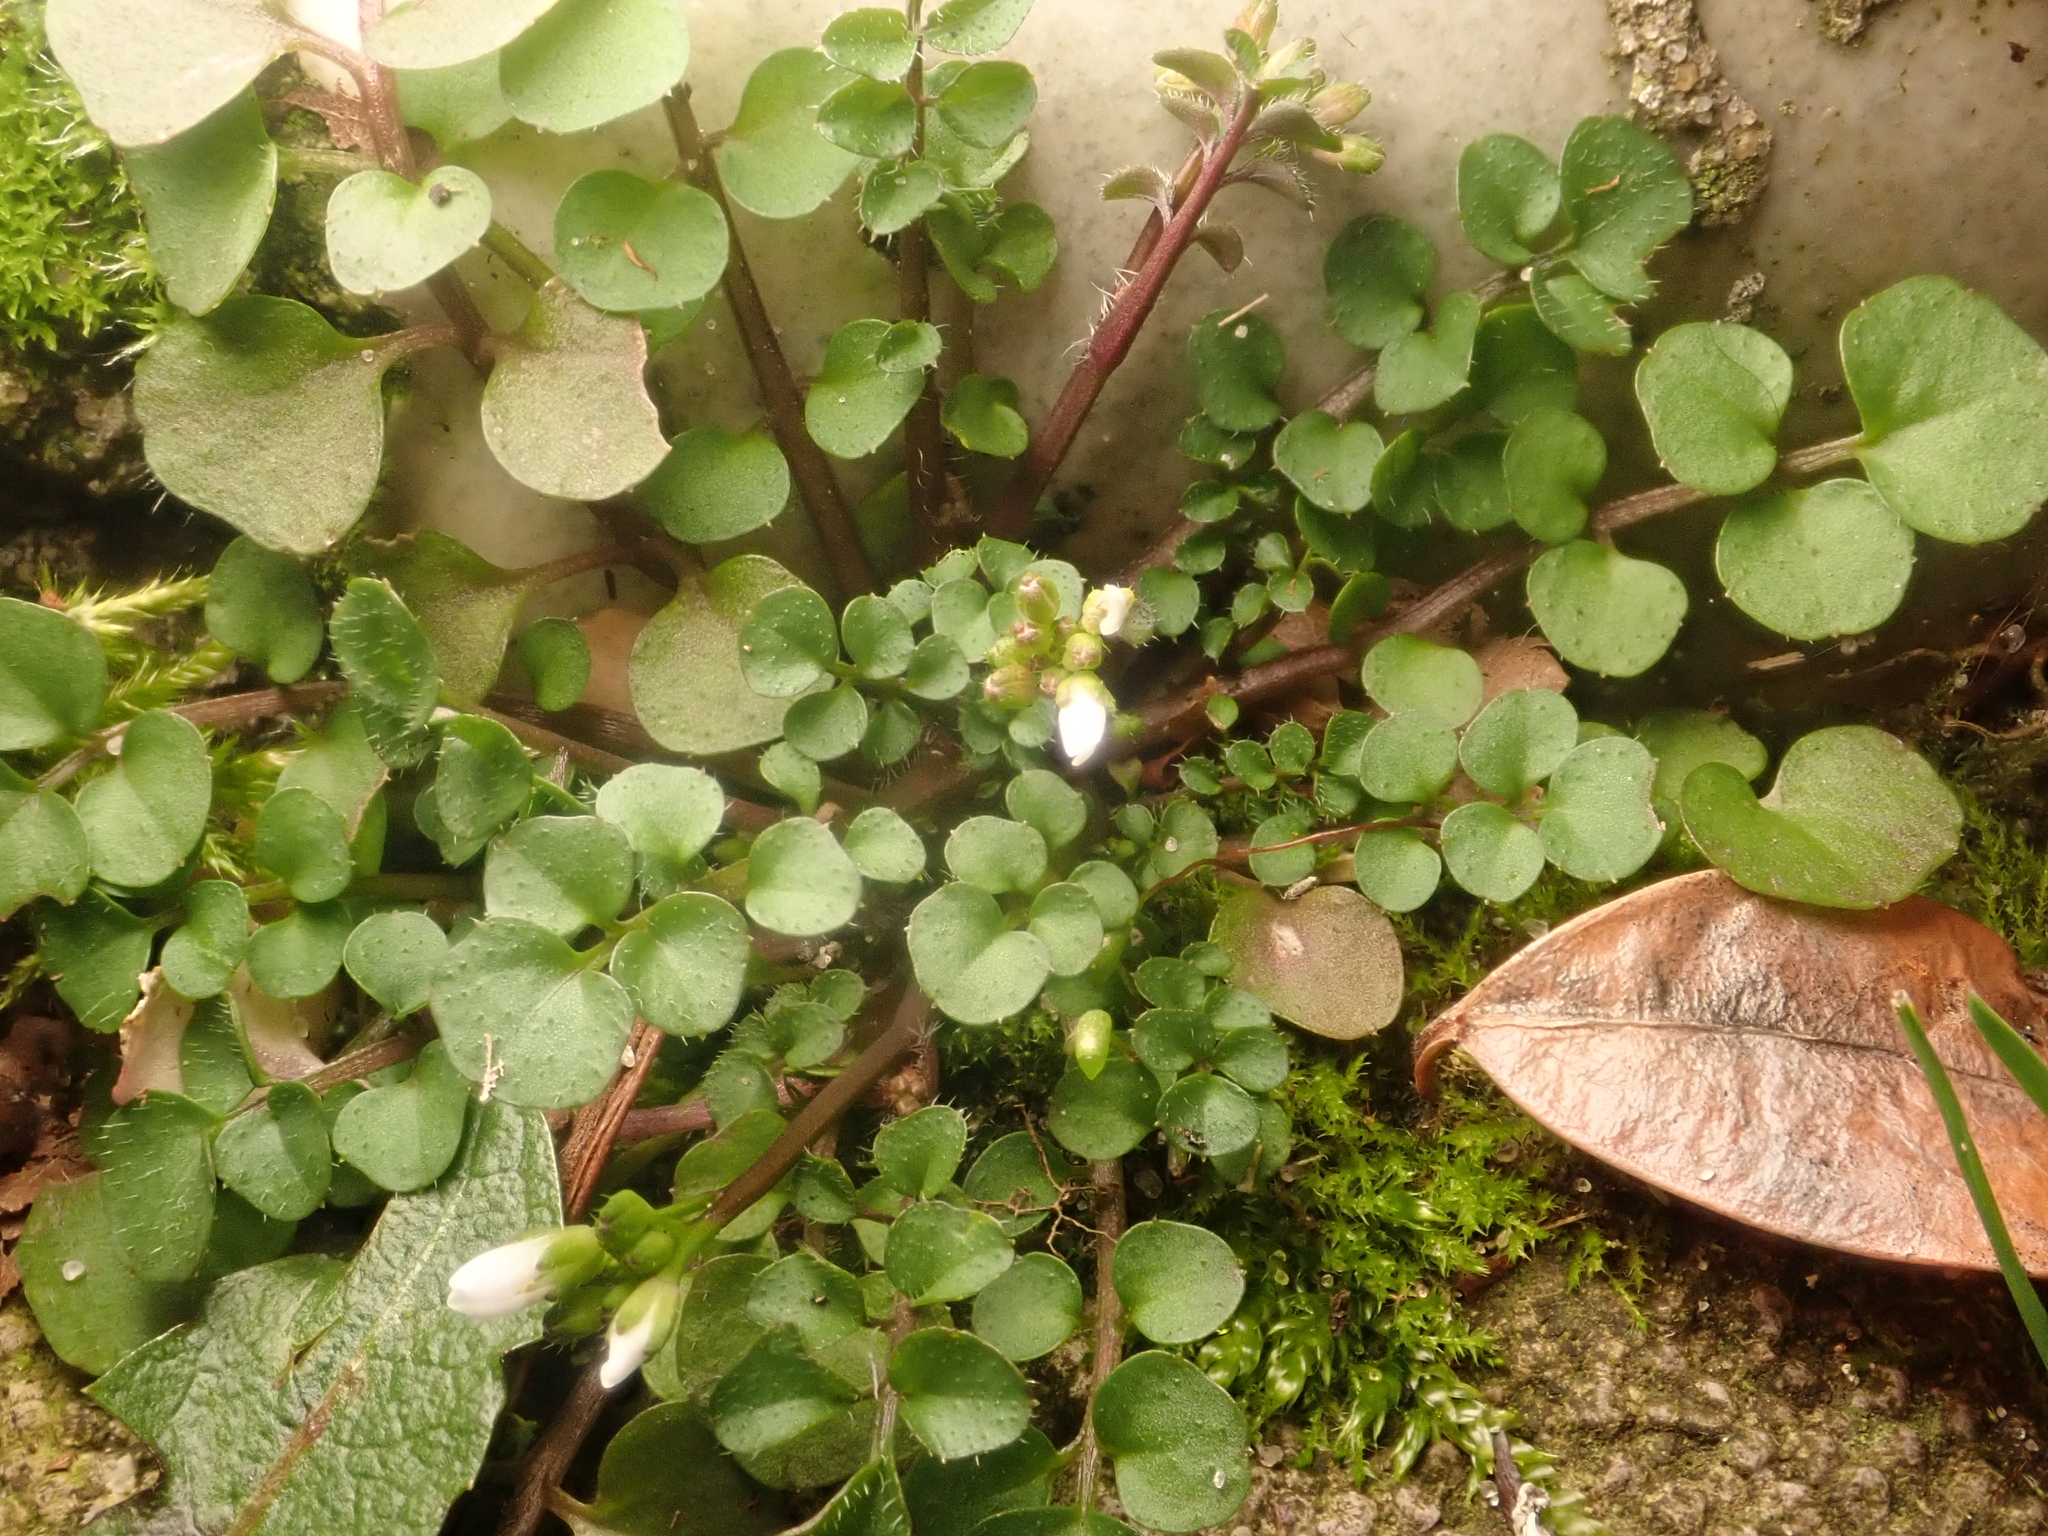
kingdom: Plantae
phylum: Tracheophyta
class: Magnoliopsida
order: Brassicales
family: Brassicaceae
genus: Cardamine
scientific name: Cardamine hirsuta
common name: Hairy bittercress
